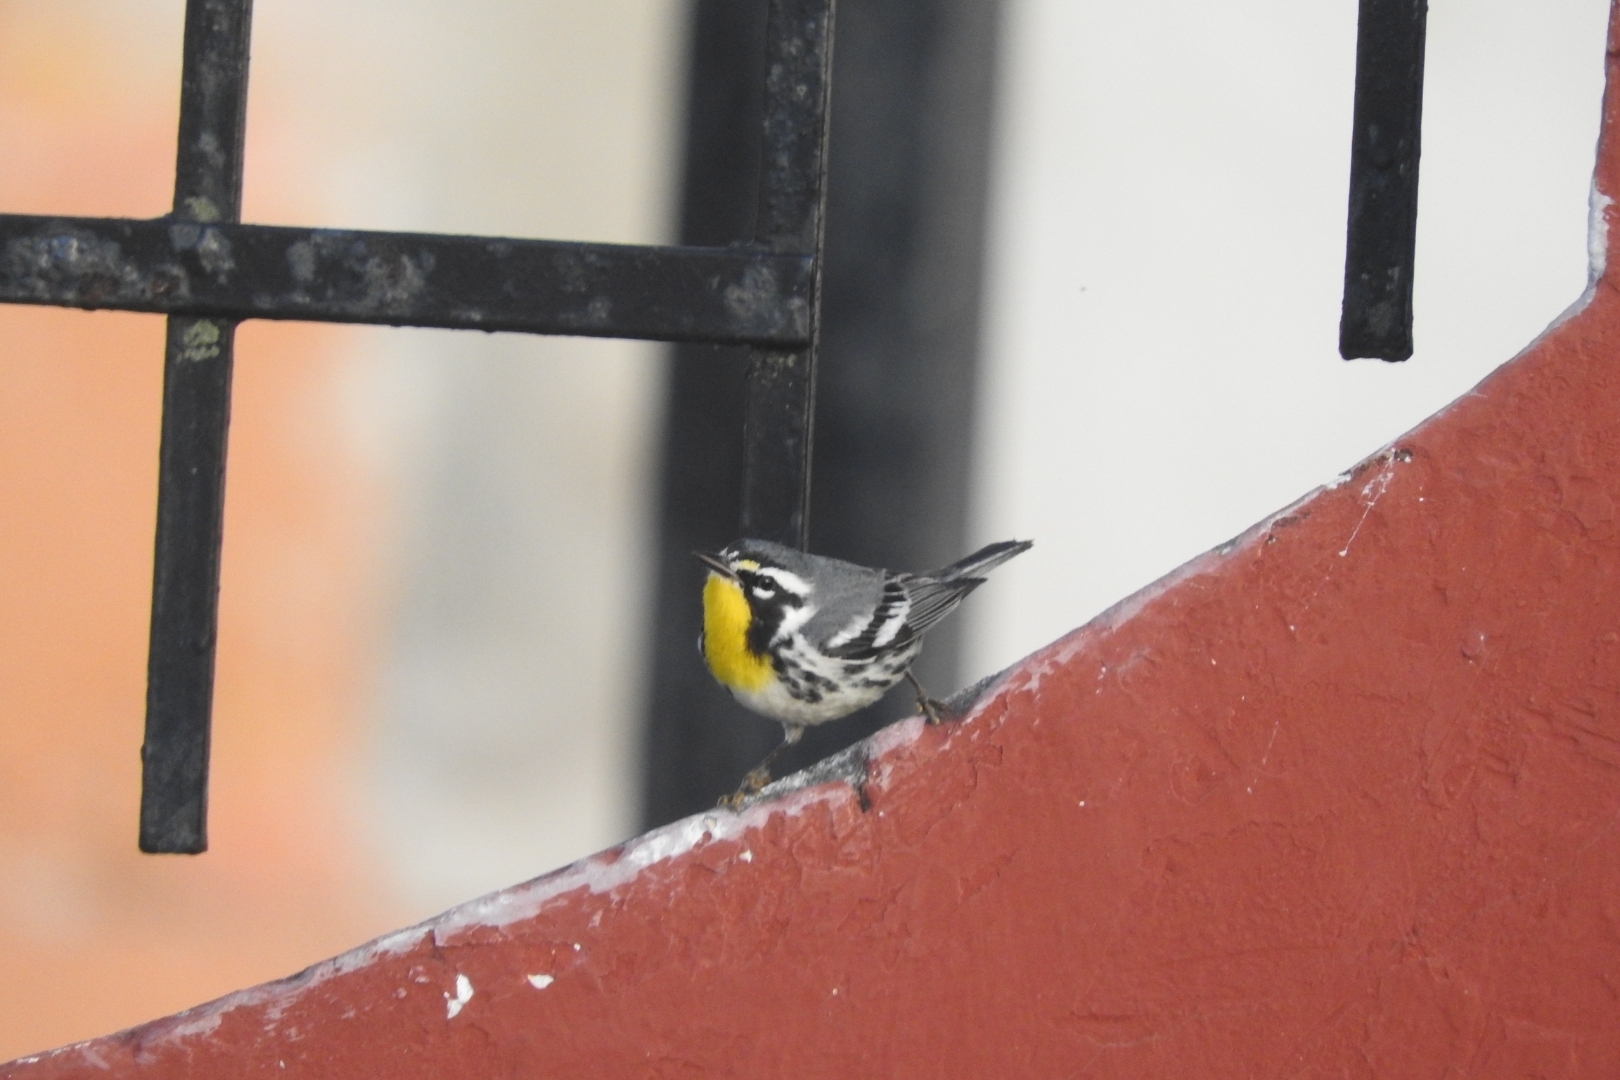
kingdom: Animalia
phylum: Chordata
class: Aves
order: Passeriformes
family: Parulidae
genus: Setophaga
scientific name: Setophaga dominica
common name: Yellow-throated warbler
